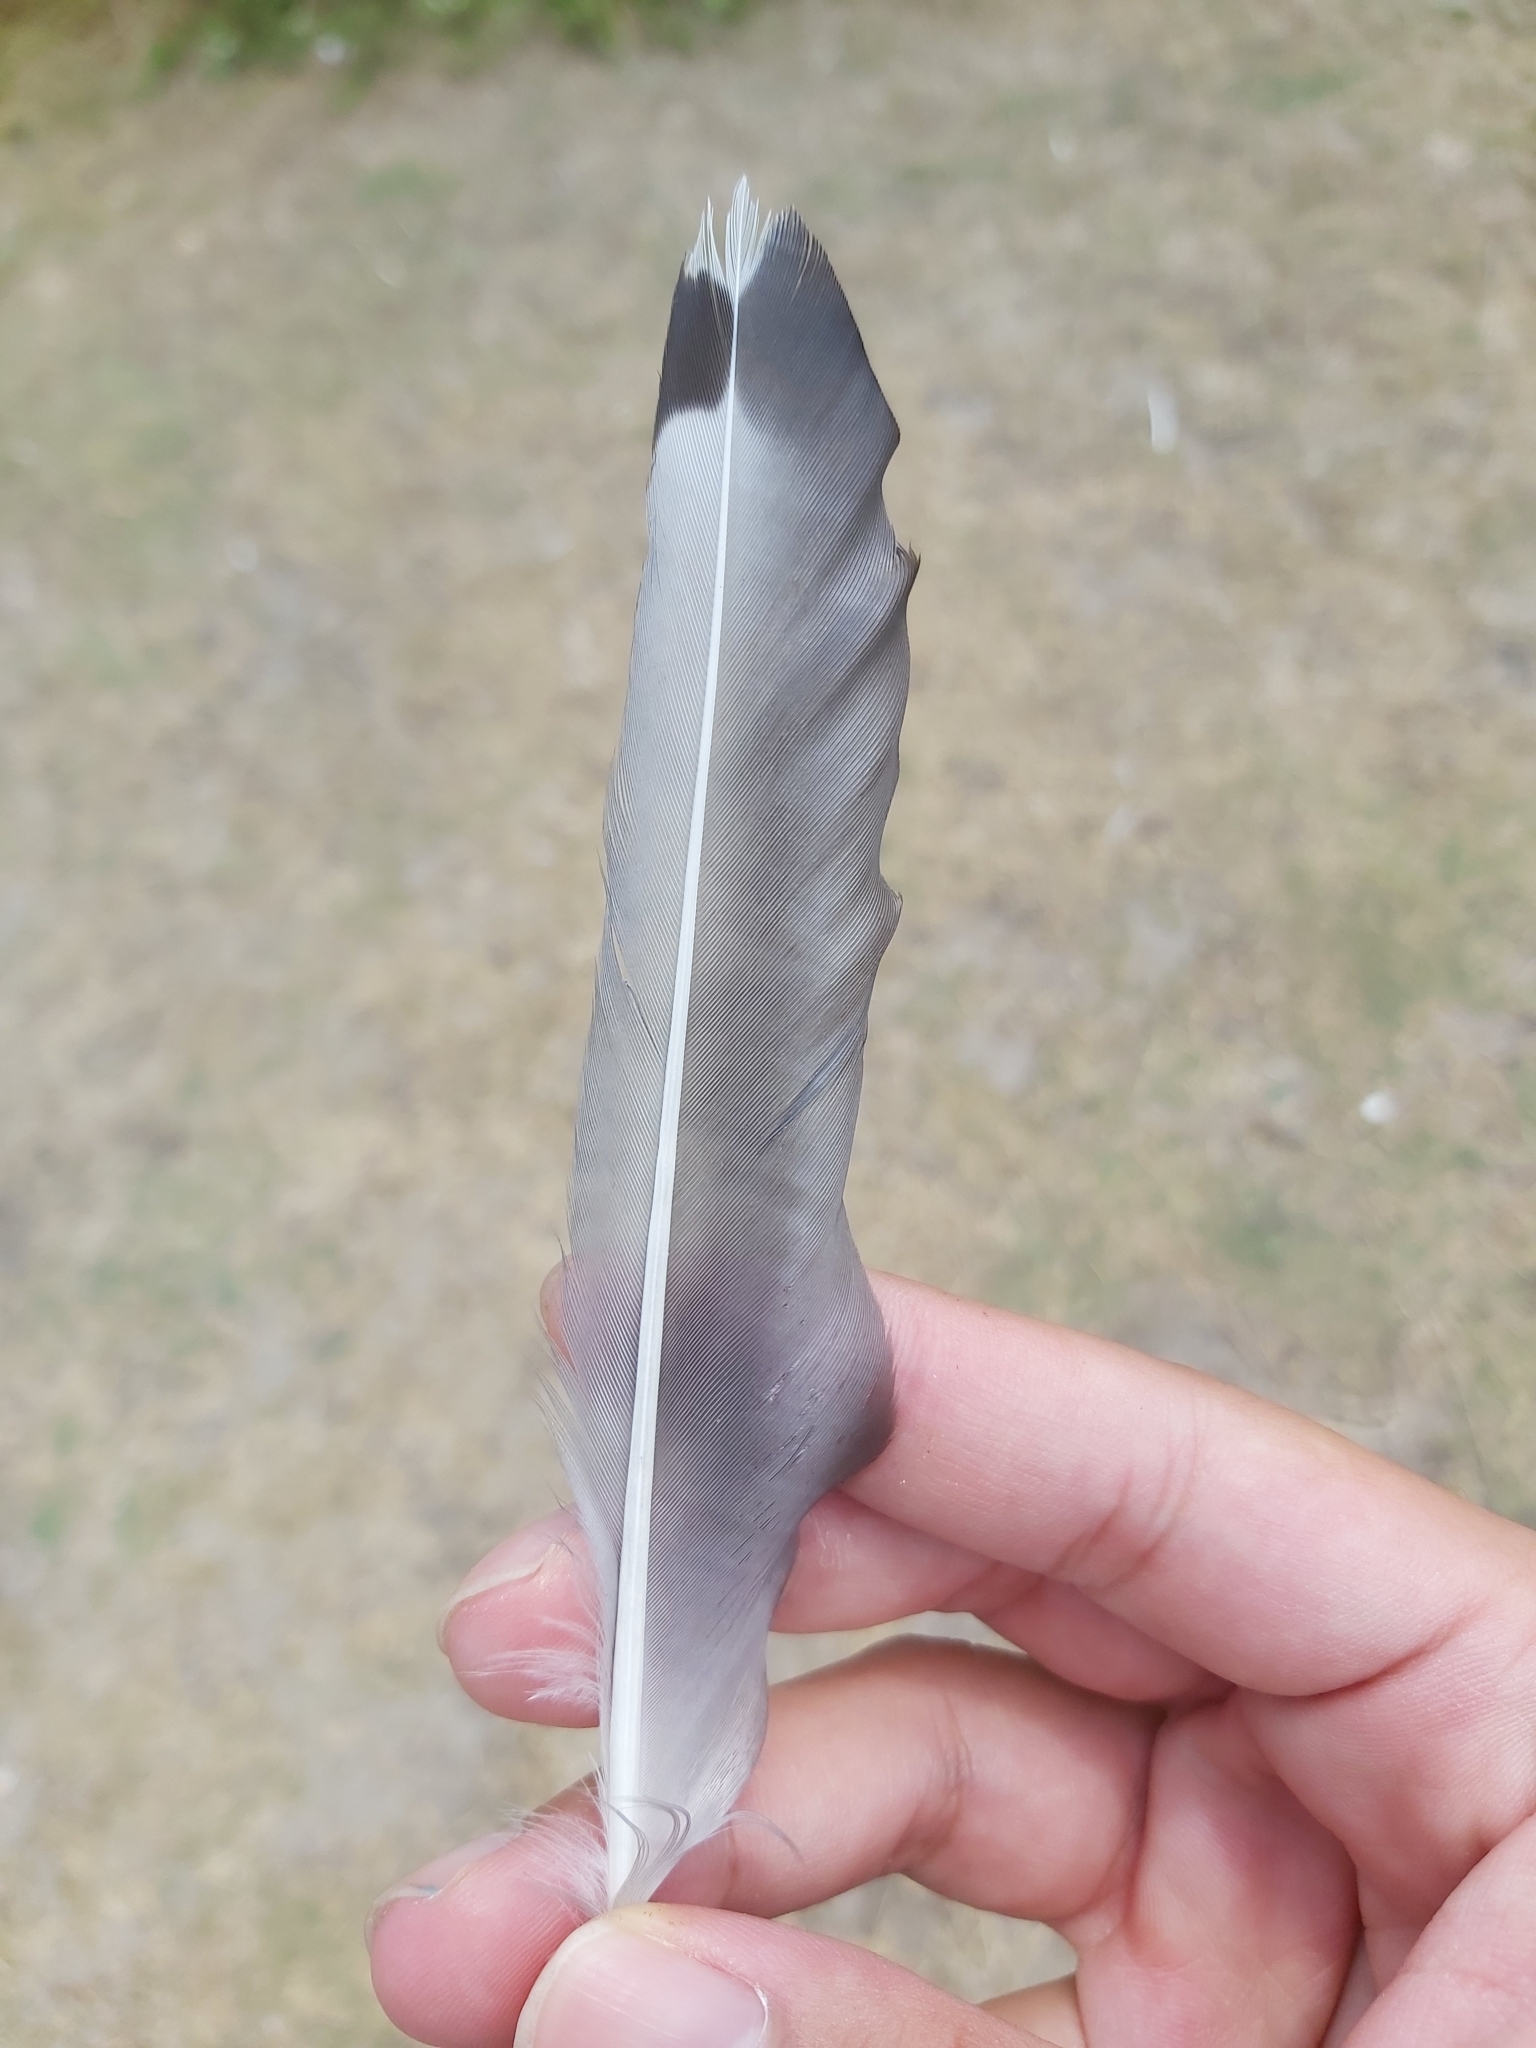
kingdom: Animalia
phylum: Chordata
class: Aves
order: Charadriiformes
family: Laridae
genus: Chroicocephalus
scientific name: Chroicocephalus novaehollandiae
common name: Silver gull
